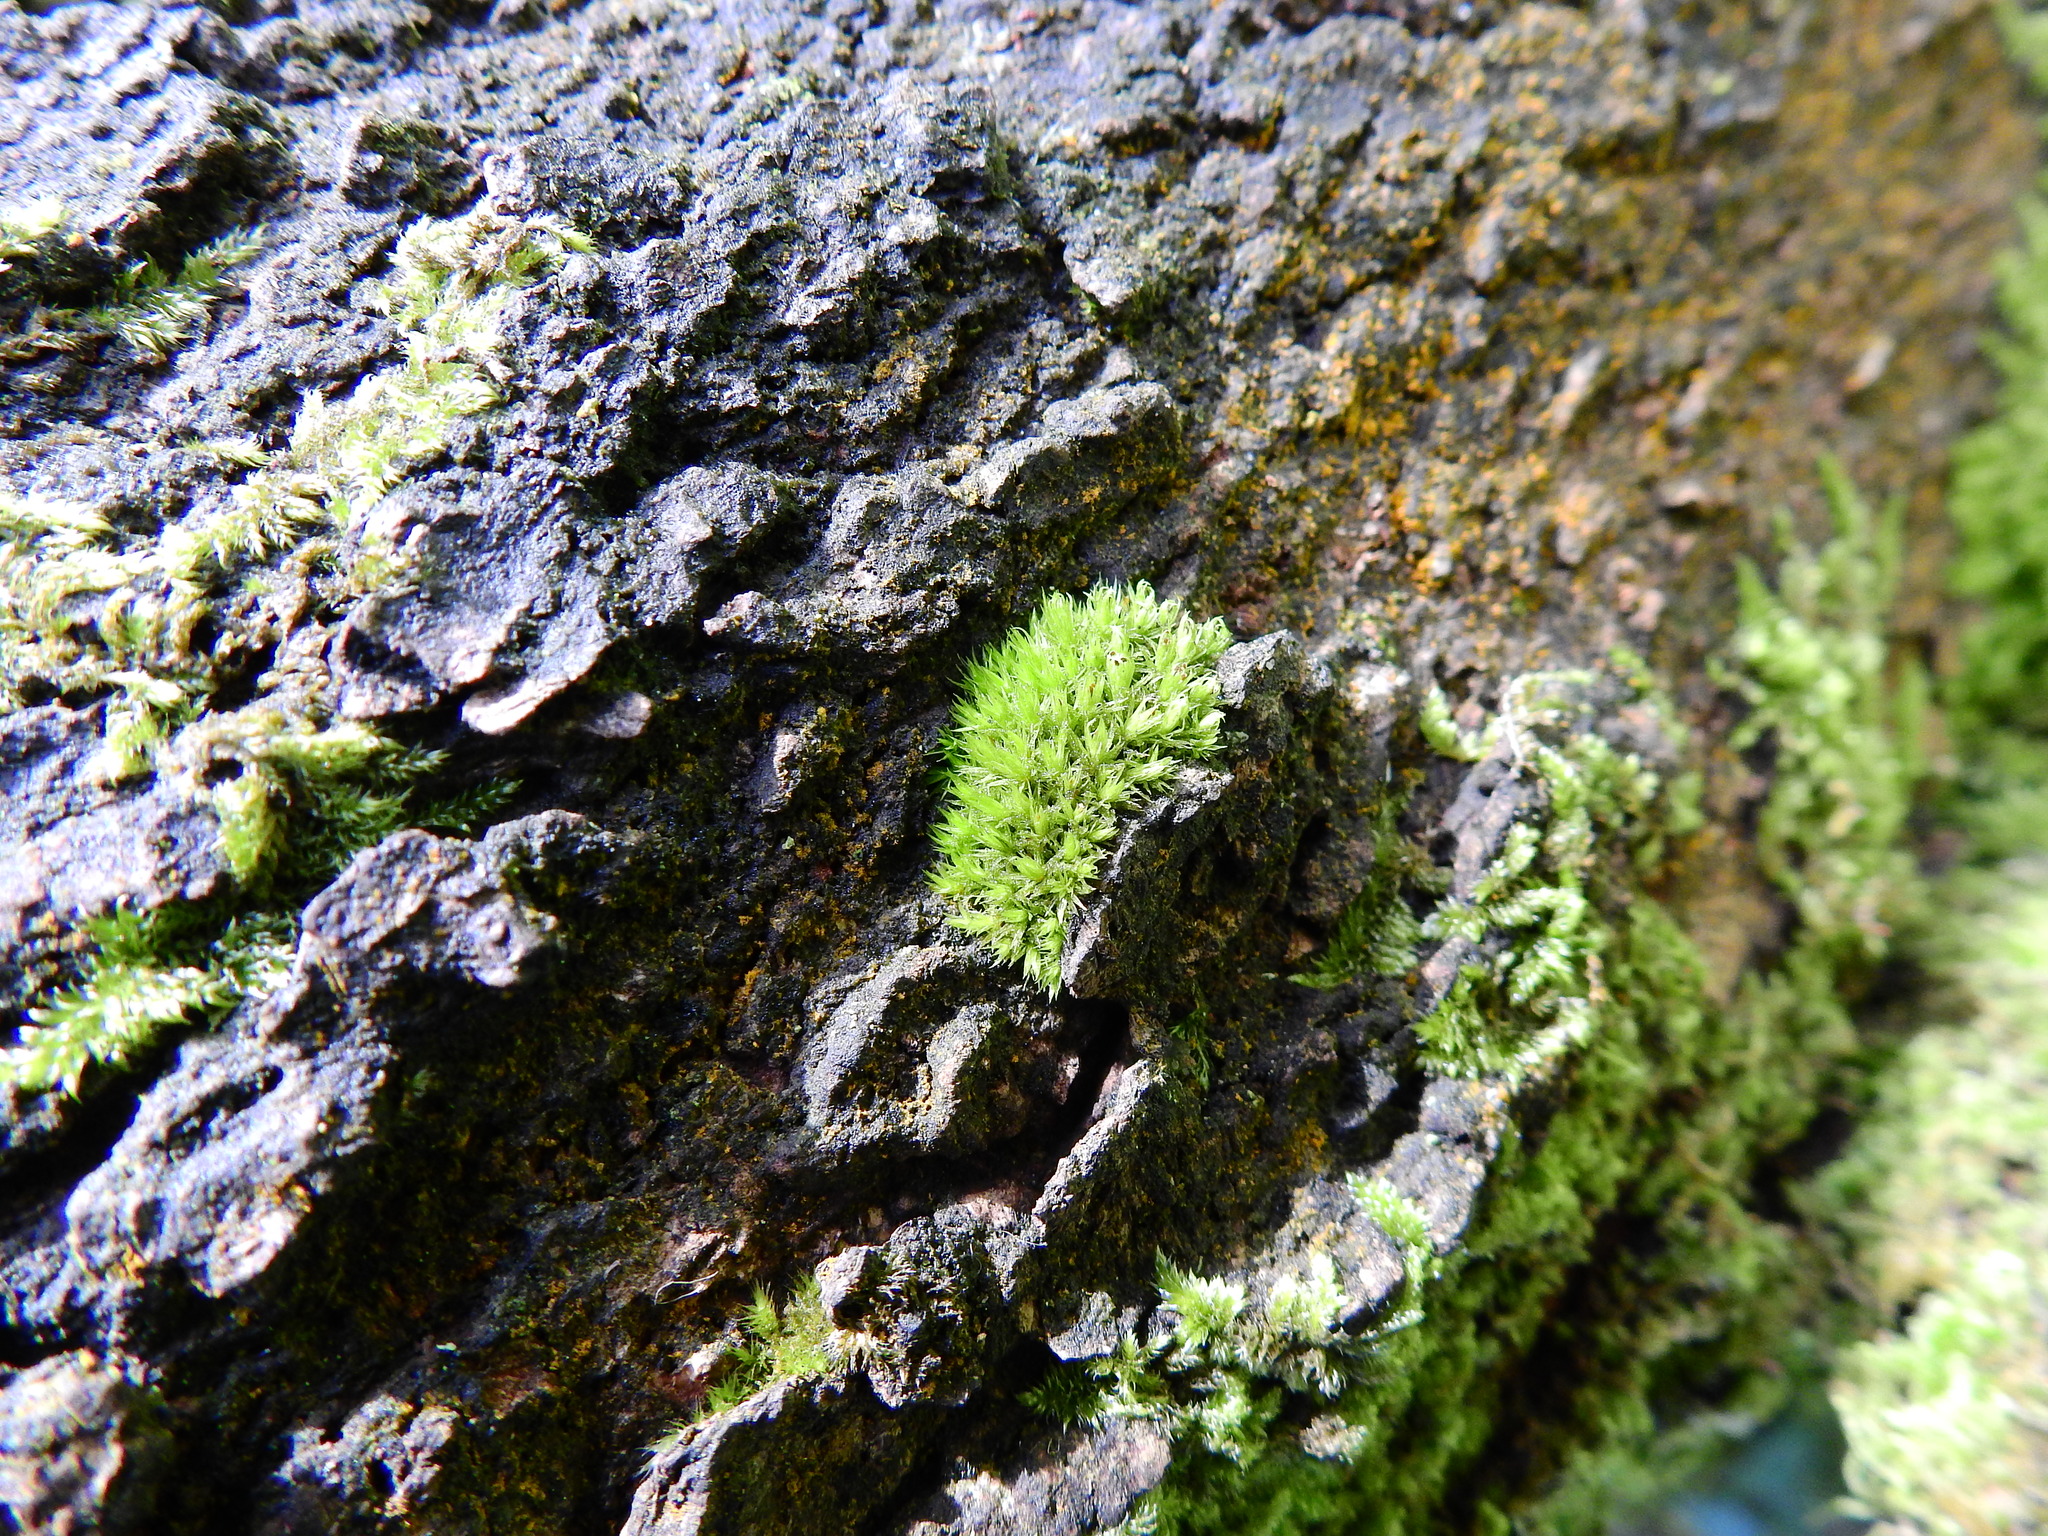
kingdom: Plantae
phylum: Bryophyta
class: Bryopsida
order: Orthotrichales
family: Orthotrichaceae
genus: Plenogemma
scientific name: Plenogemma phyllantha
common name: Frizzled pincushion
